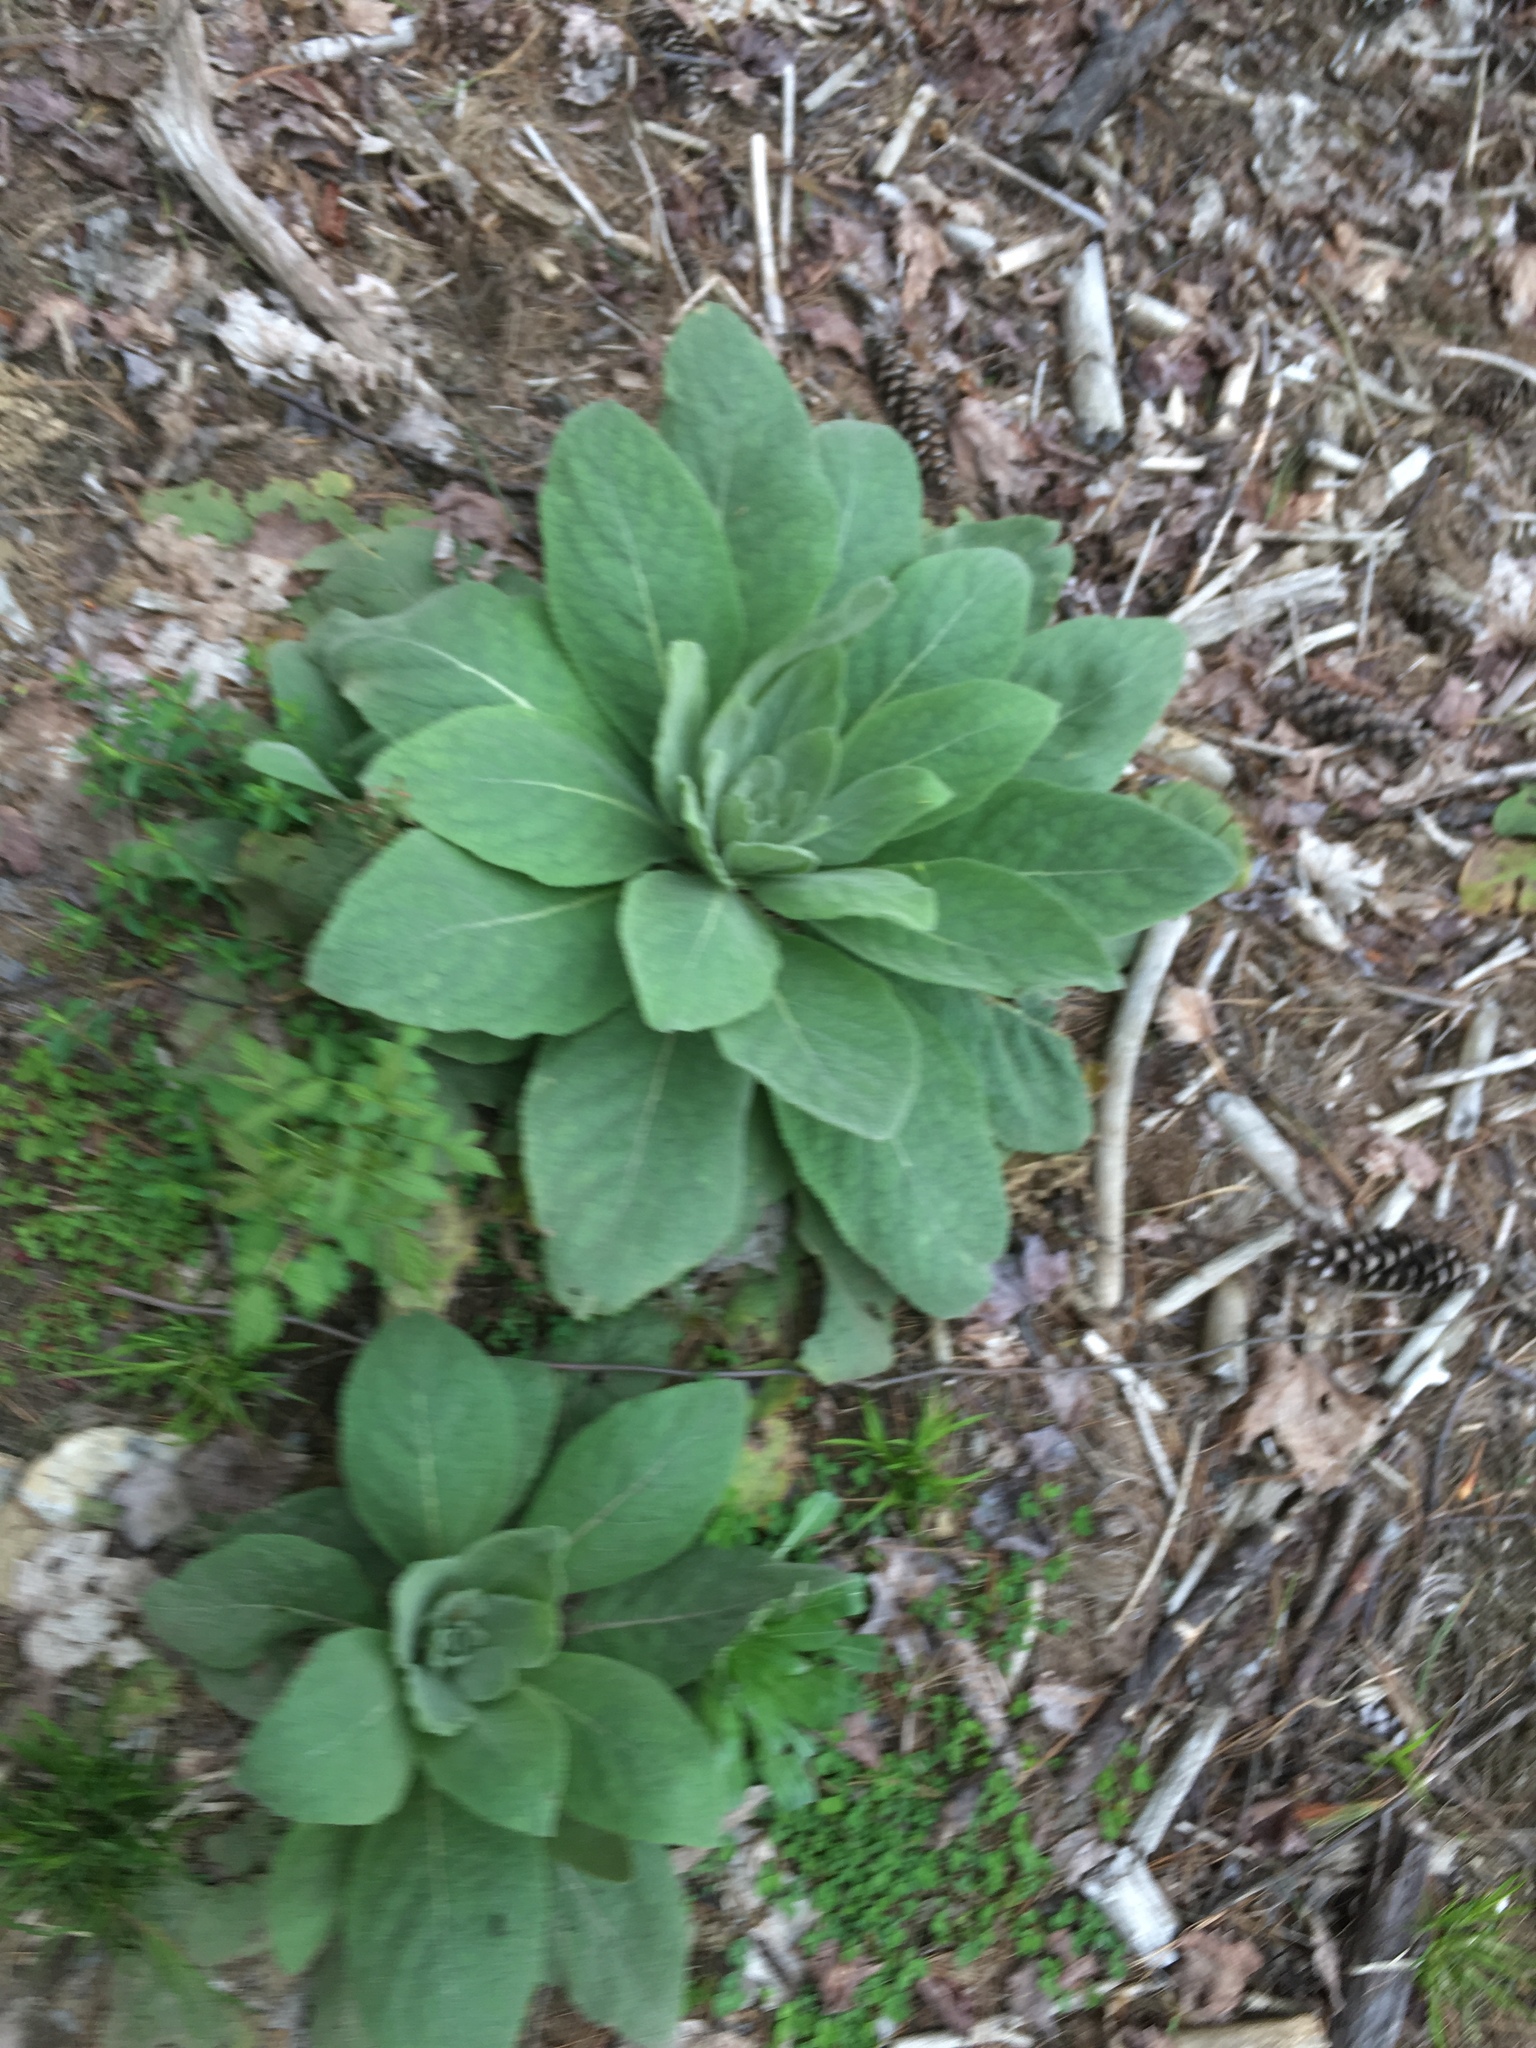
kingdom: Plantae
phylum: Tracheophyta
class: Magnoliopsida
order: Lamiales
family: Scrophulariaceae
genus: Verbascum
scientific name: Verbascum thapsus
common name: Common mullein
